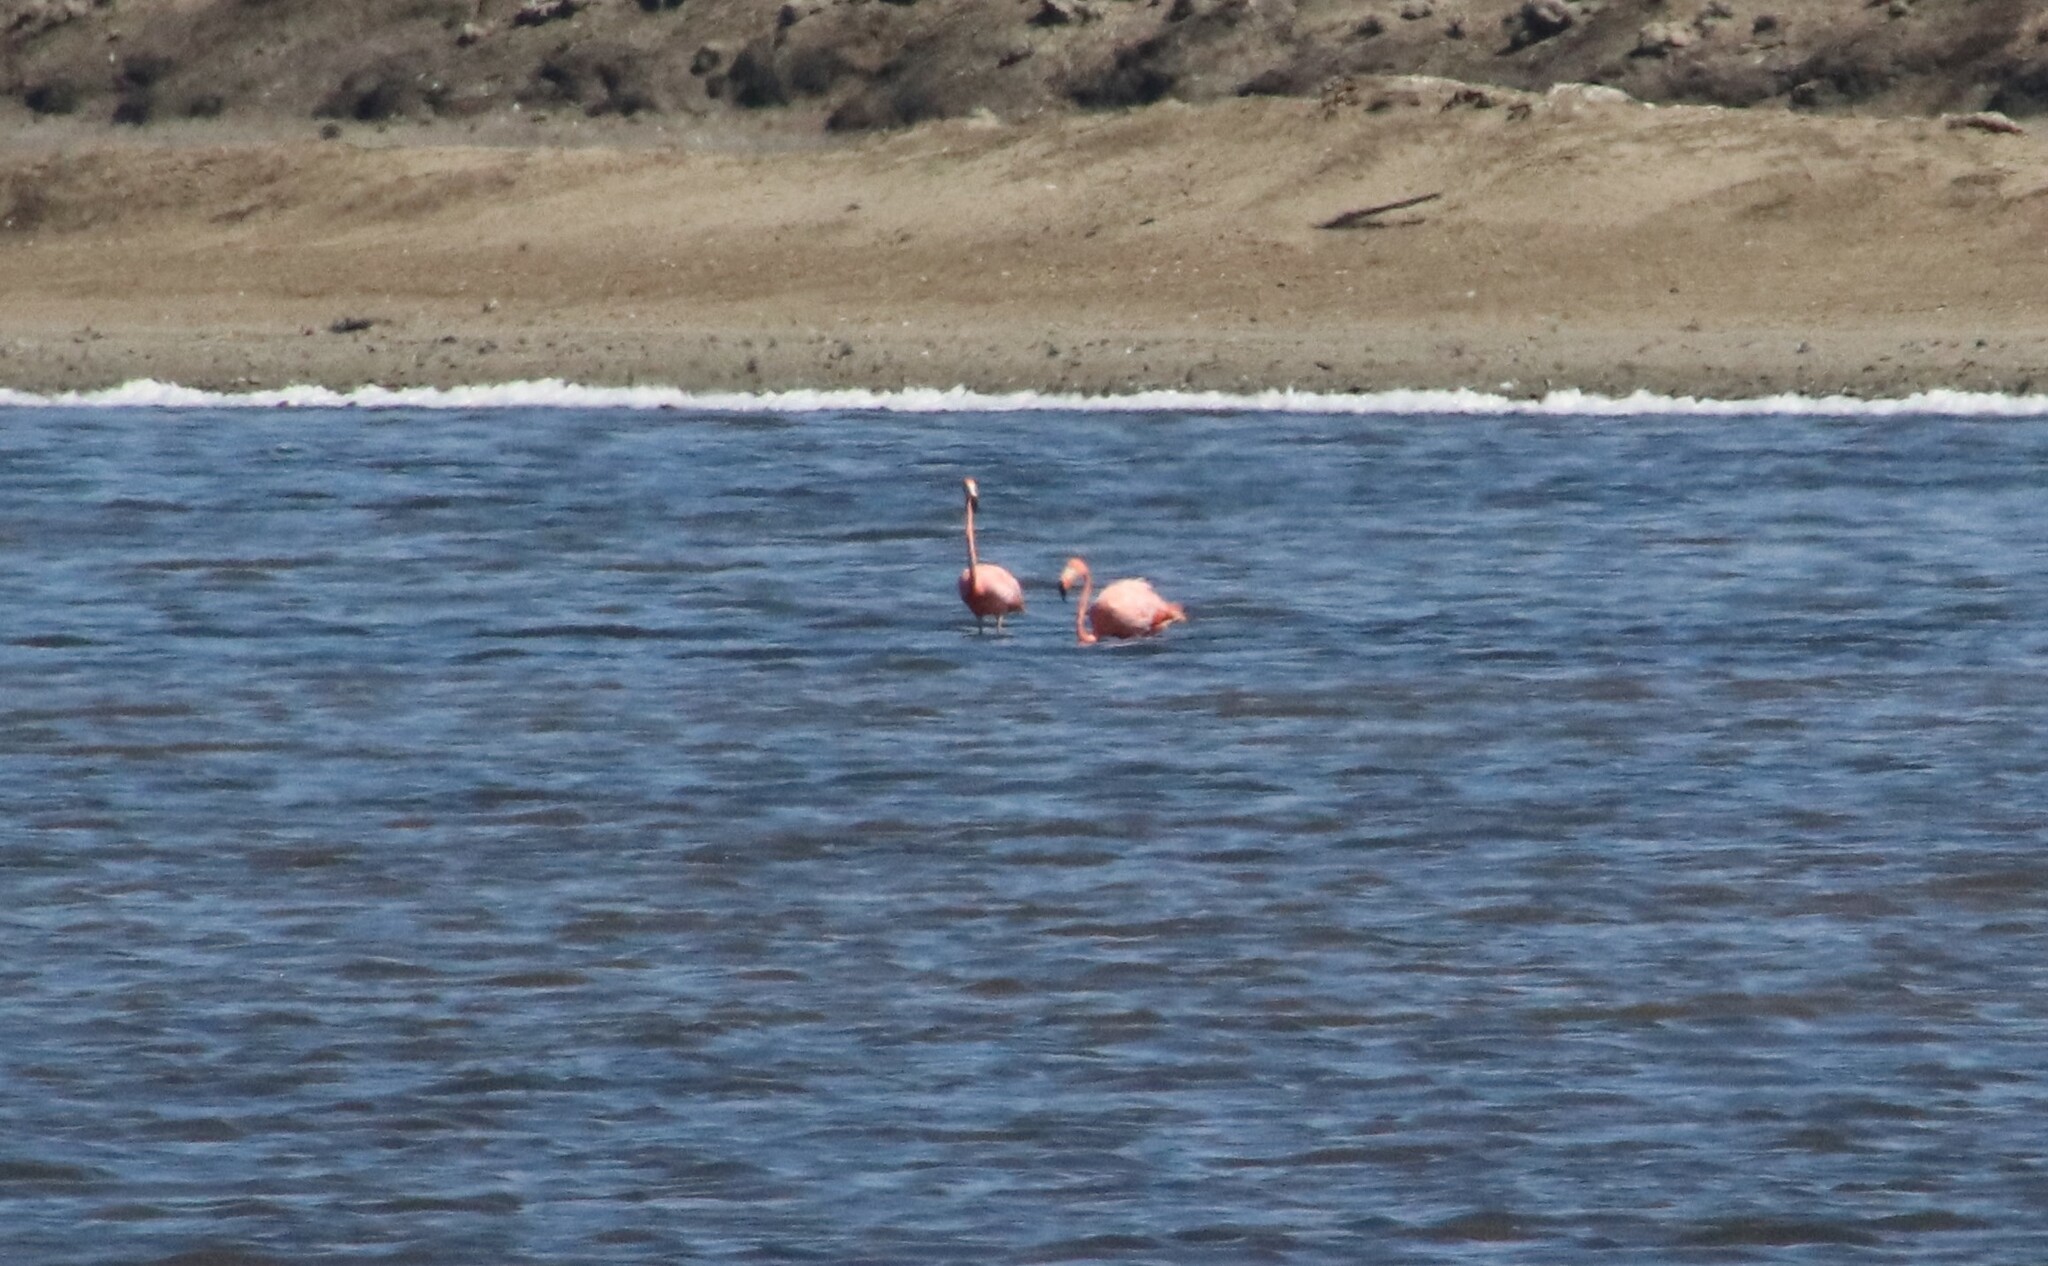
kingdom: Animalia
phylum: Chordata
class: Aves
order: Phoenicopteriformes
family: Phoenicopteridae
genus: Phoenicopterus
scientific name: Phoenicopterus ruber
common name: American flamingo
